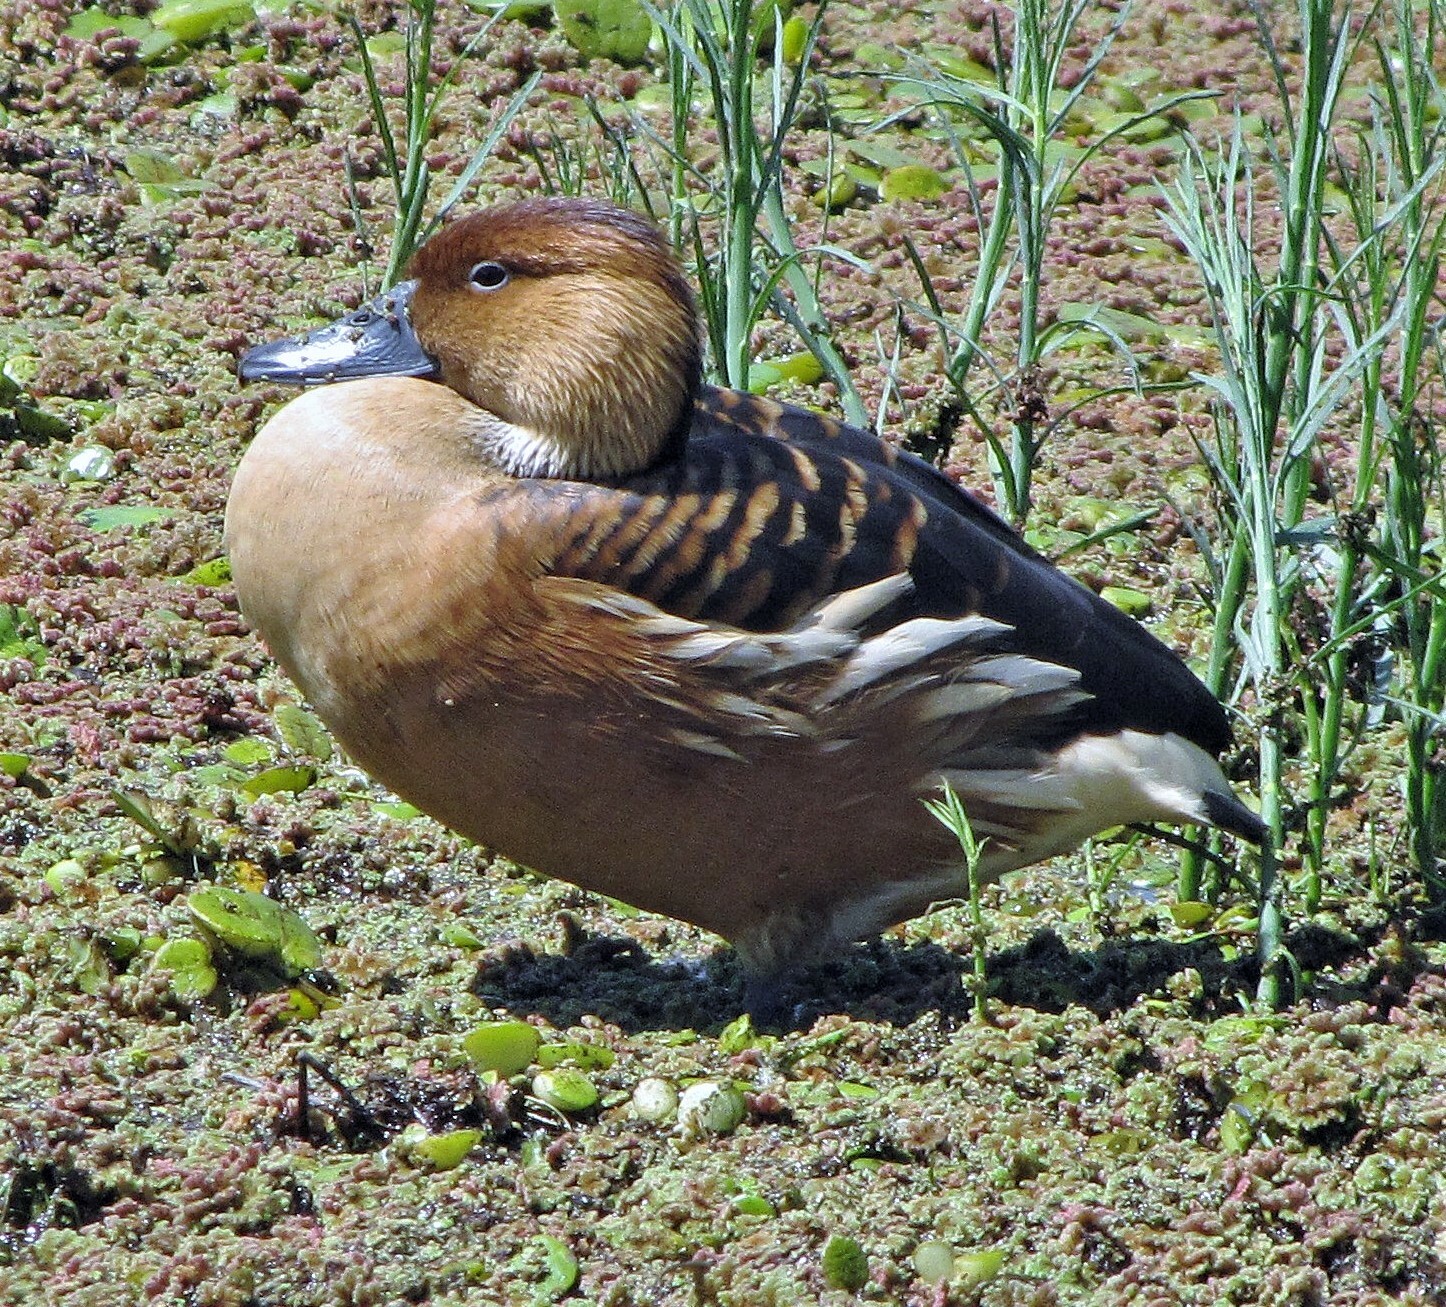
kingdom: Animalia
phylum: Chordata
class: Aves
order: Anseriformes
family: Anatidae
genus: Dendrocygna
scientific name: Dendrocygna bicolor
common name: Fulvous whistling duck
